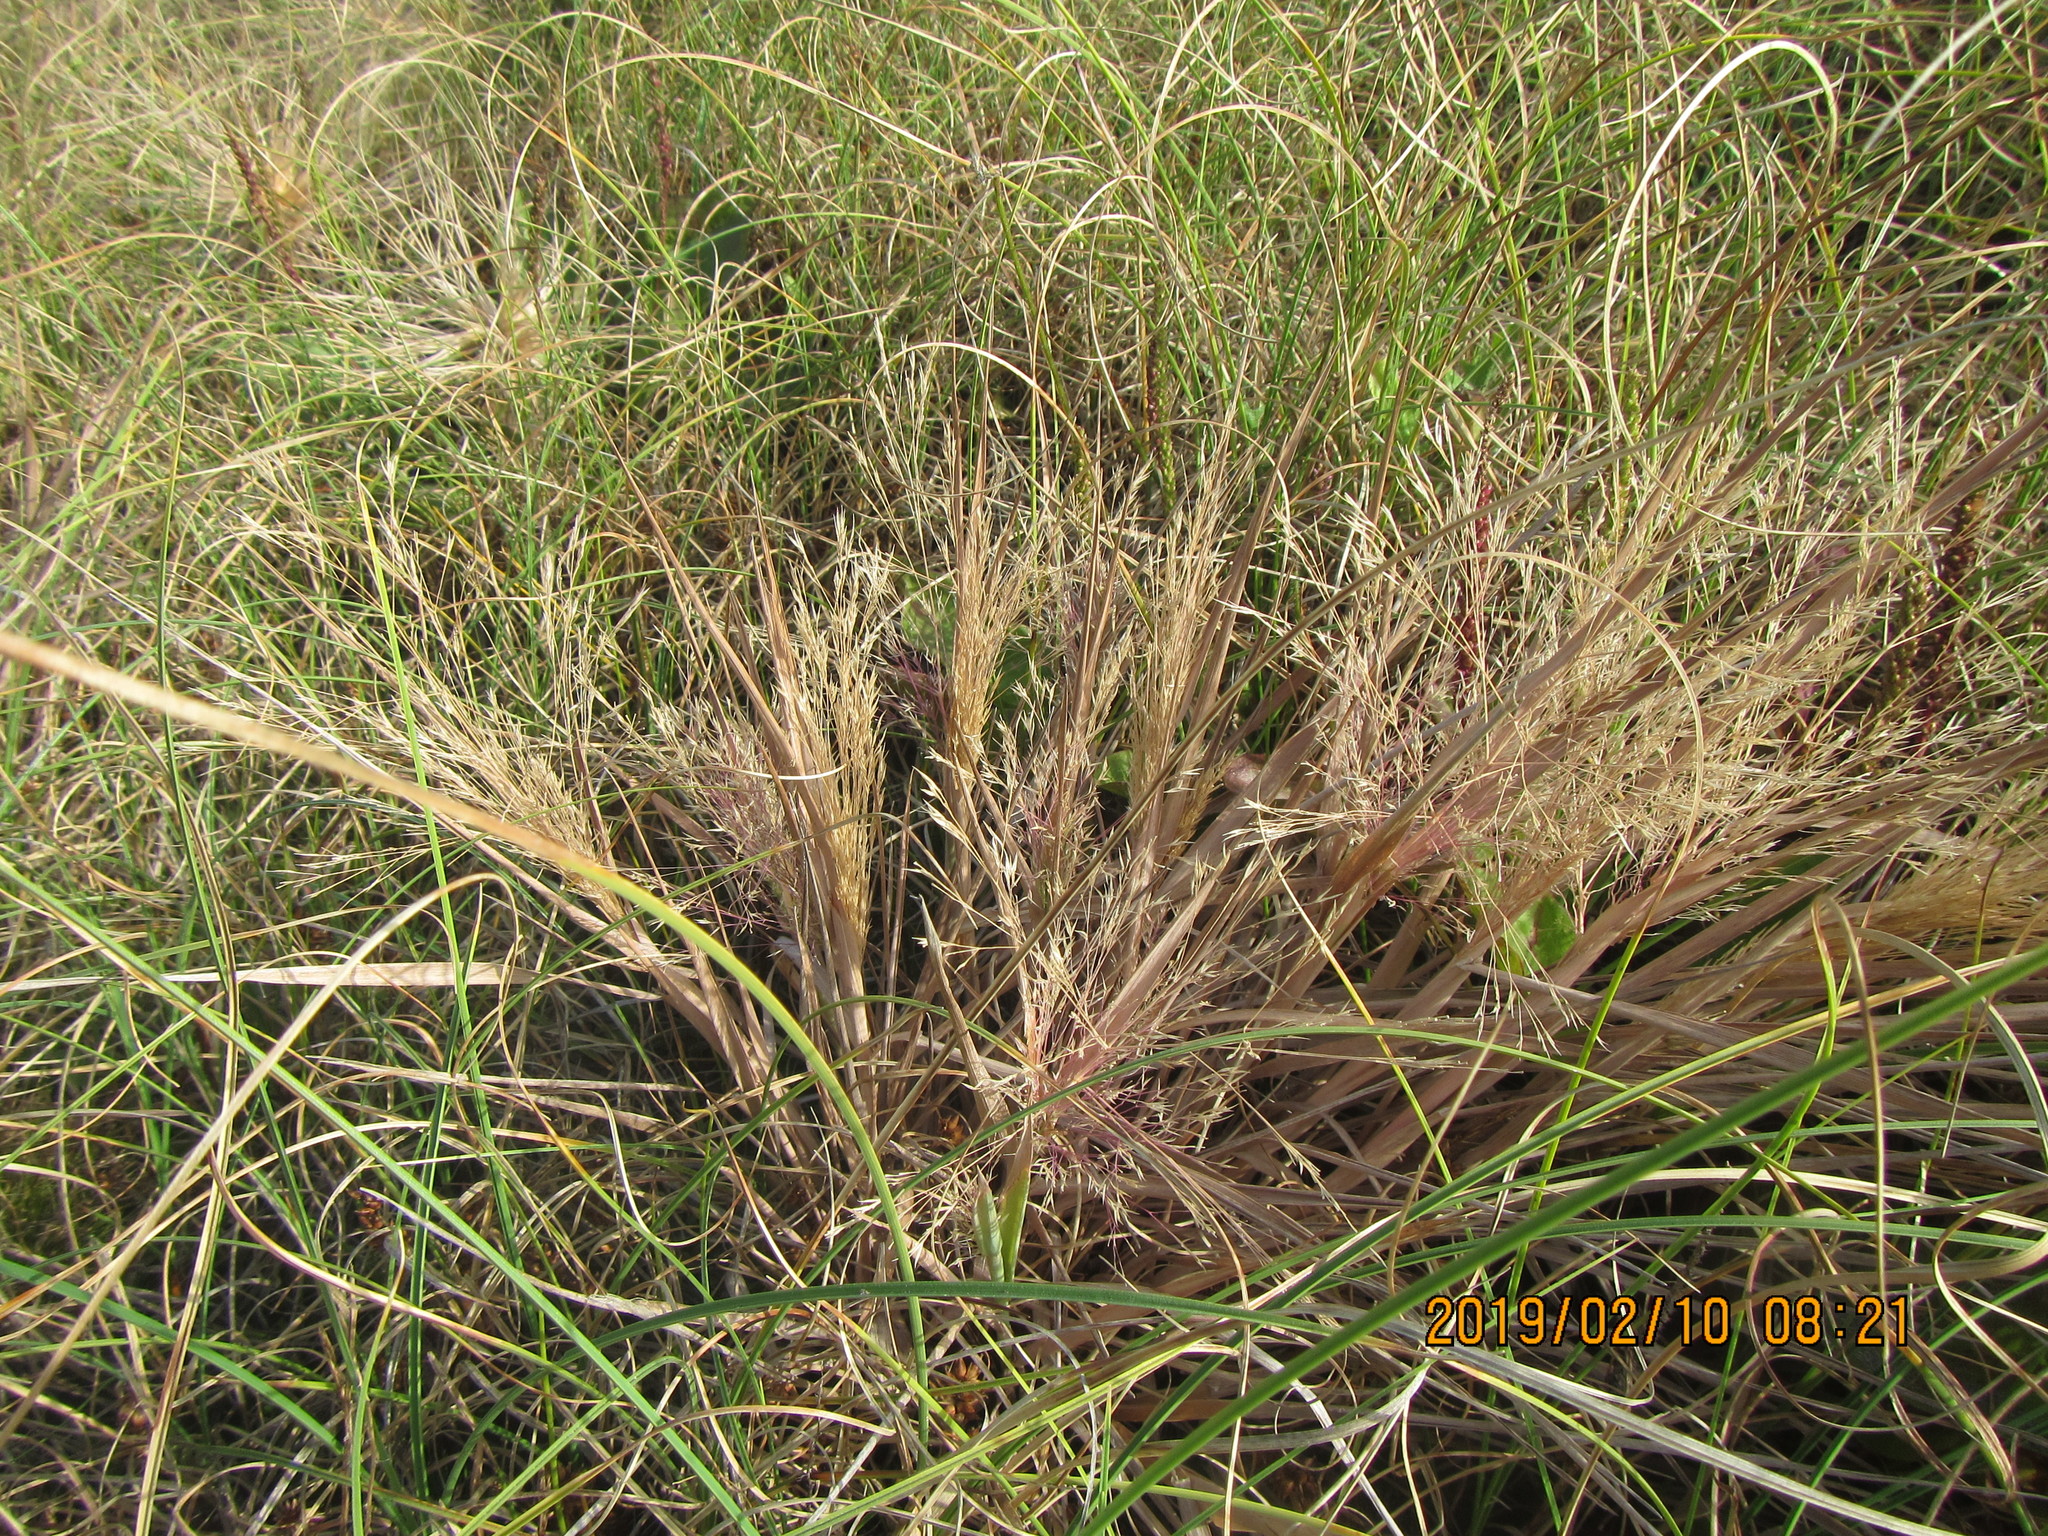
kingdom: Plantae
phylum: Tracheophyta
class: Liliopsida
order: Poales
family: Poaceae
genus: Lachnagrostis
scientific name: Lachnagrostis billardierei
